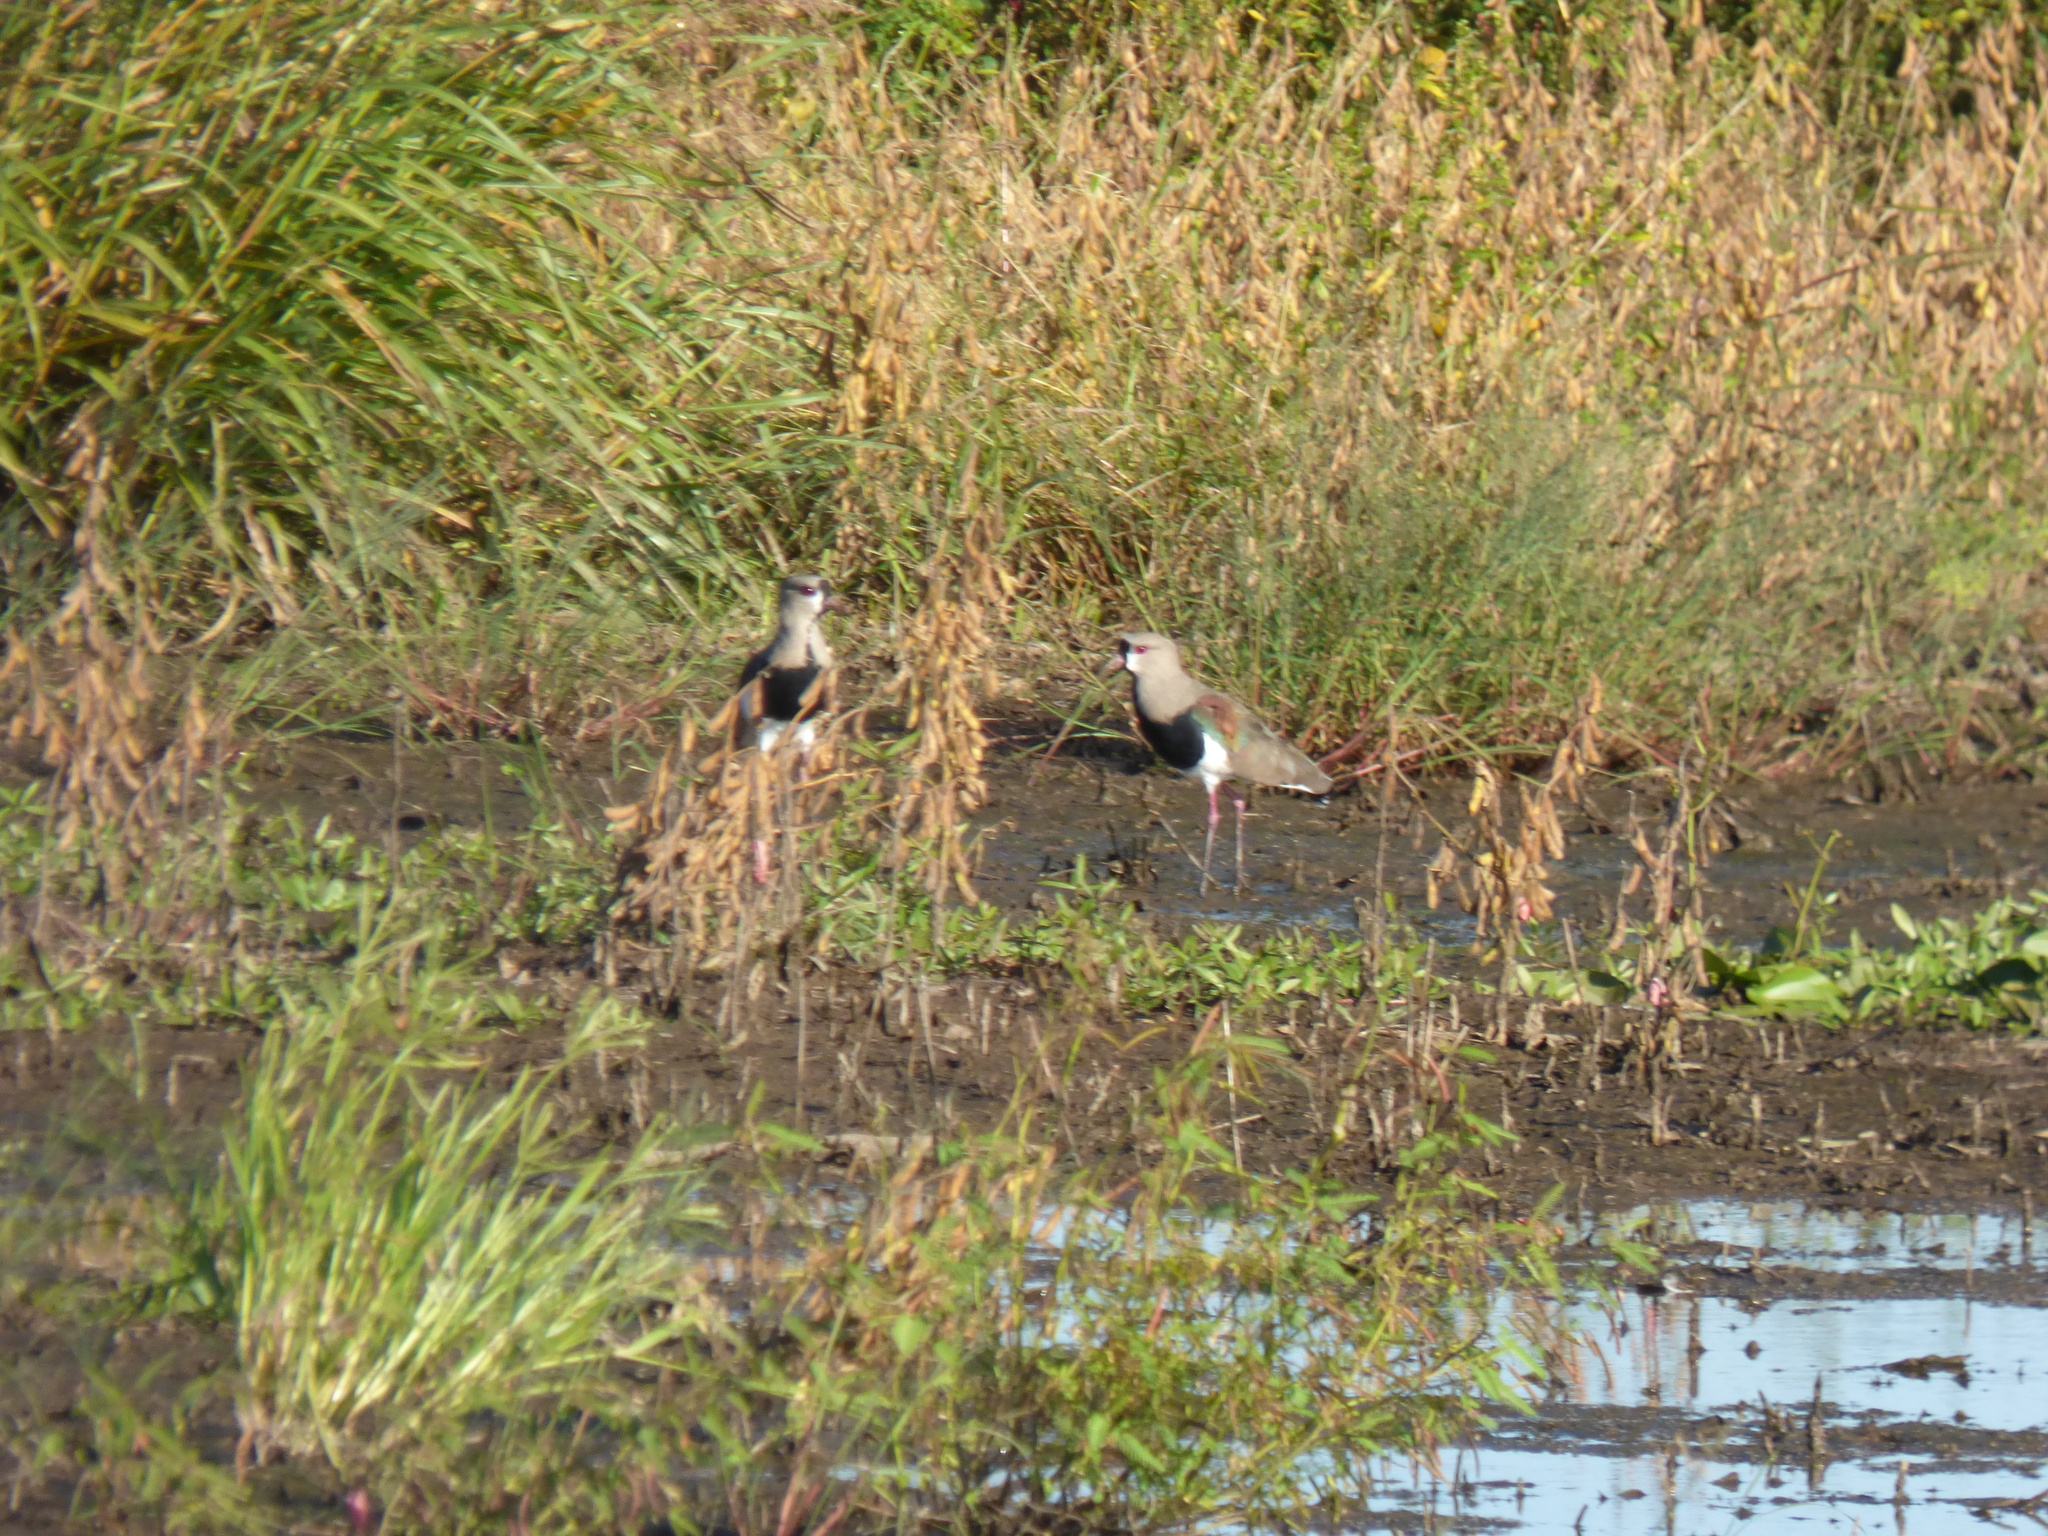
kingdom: Animalia
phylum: Chordata
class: Aves
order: Charadriiformes
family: Charadriidae
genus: Vanellus
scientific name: Vanellus chilensis
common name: Southern lapwing
